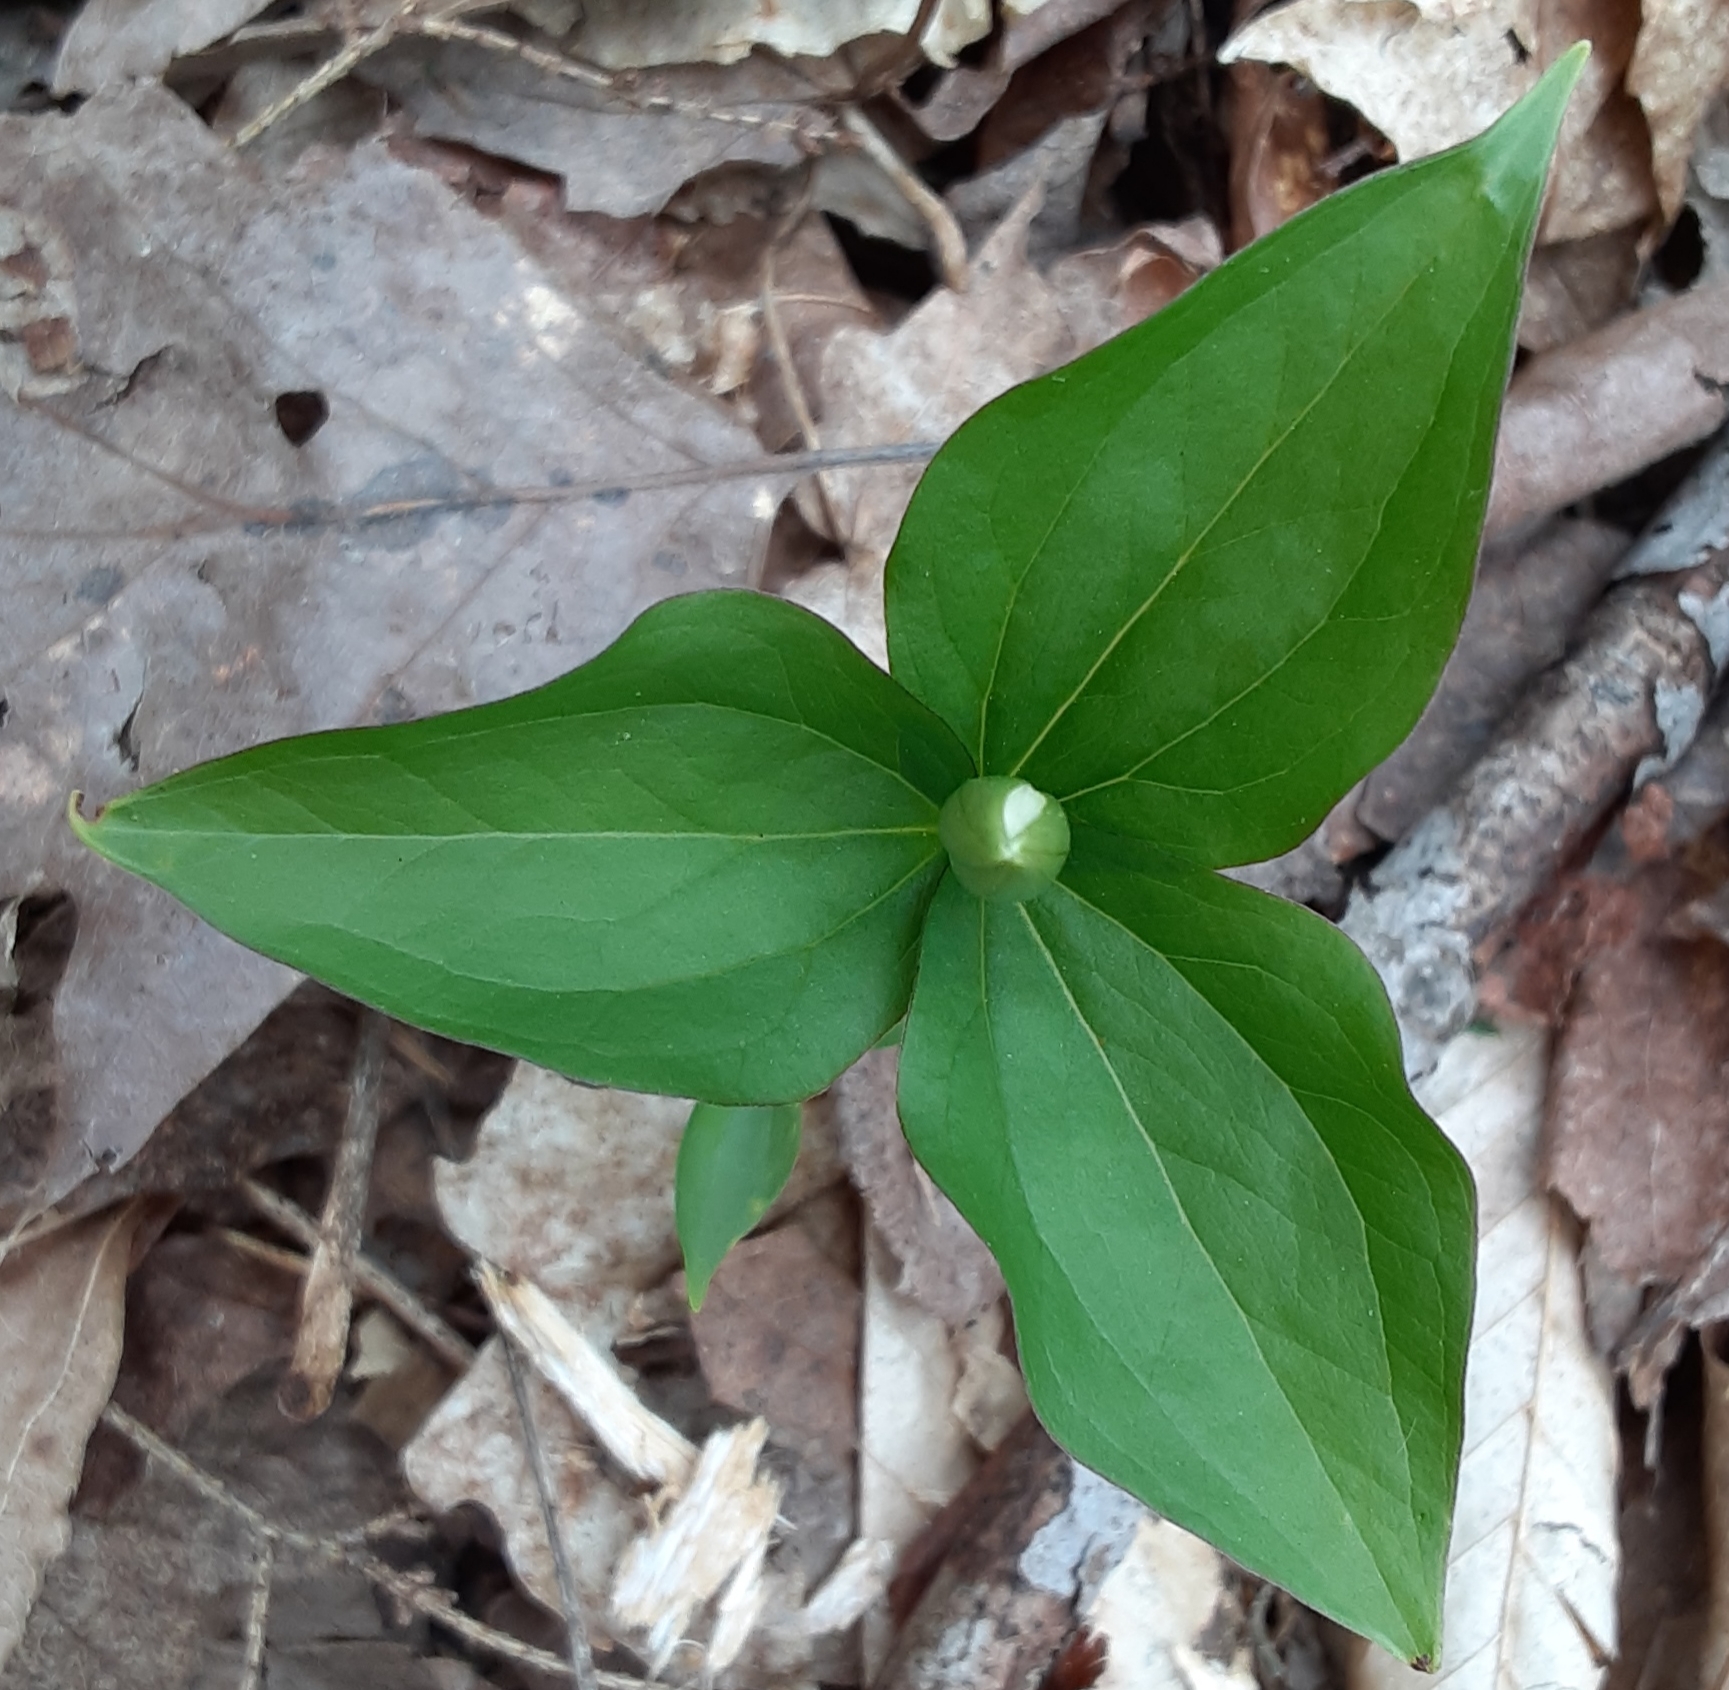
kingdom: Plantae
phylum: Tracheophyta
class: Liliopsida
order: Liliales
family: Melanthiaceae
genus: Trillium
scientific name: Trillium grandiflorum
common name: Great white trillium
